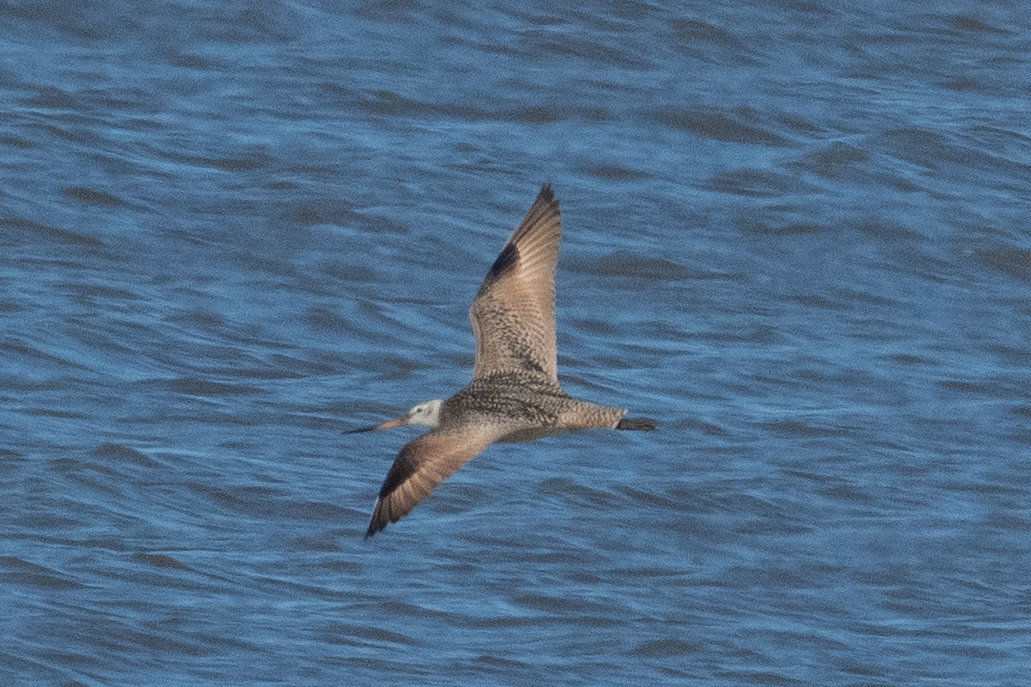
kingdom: Animalia
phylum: Chordata
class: Aves
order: Charadriiformes
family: Scolopacidae
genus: Limosa
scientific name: Limosa fedoa
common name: Marbled godwit
